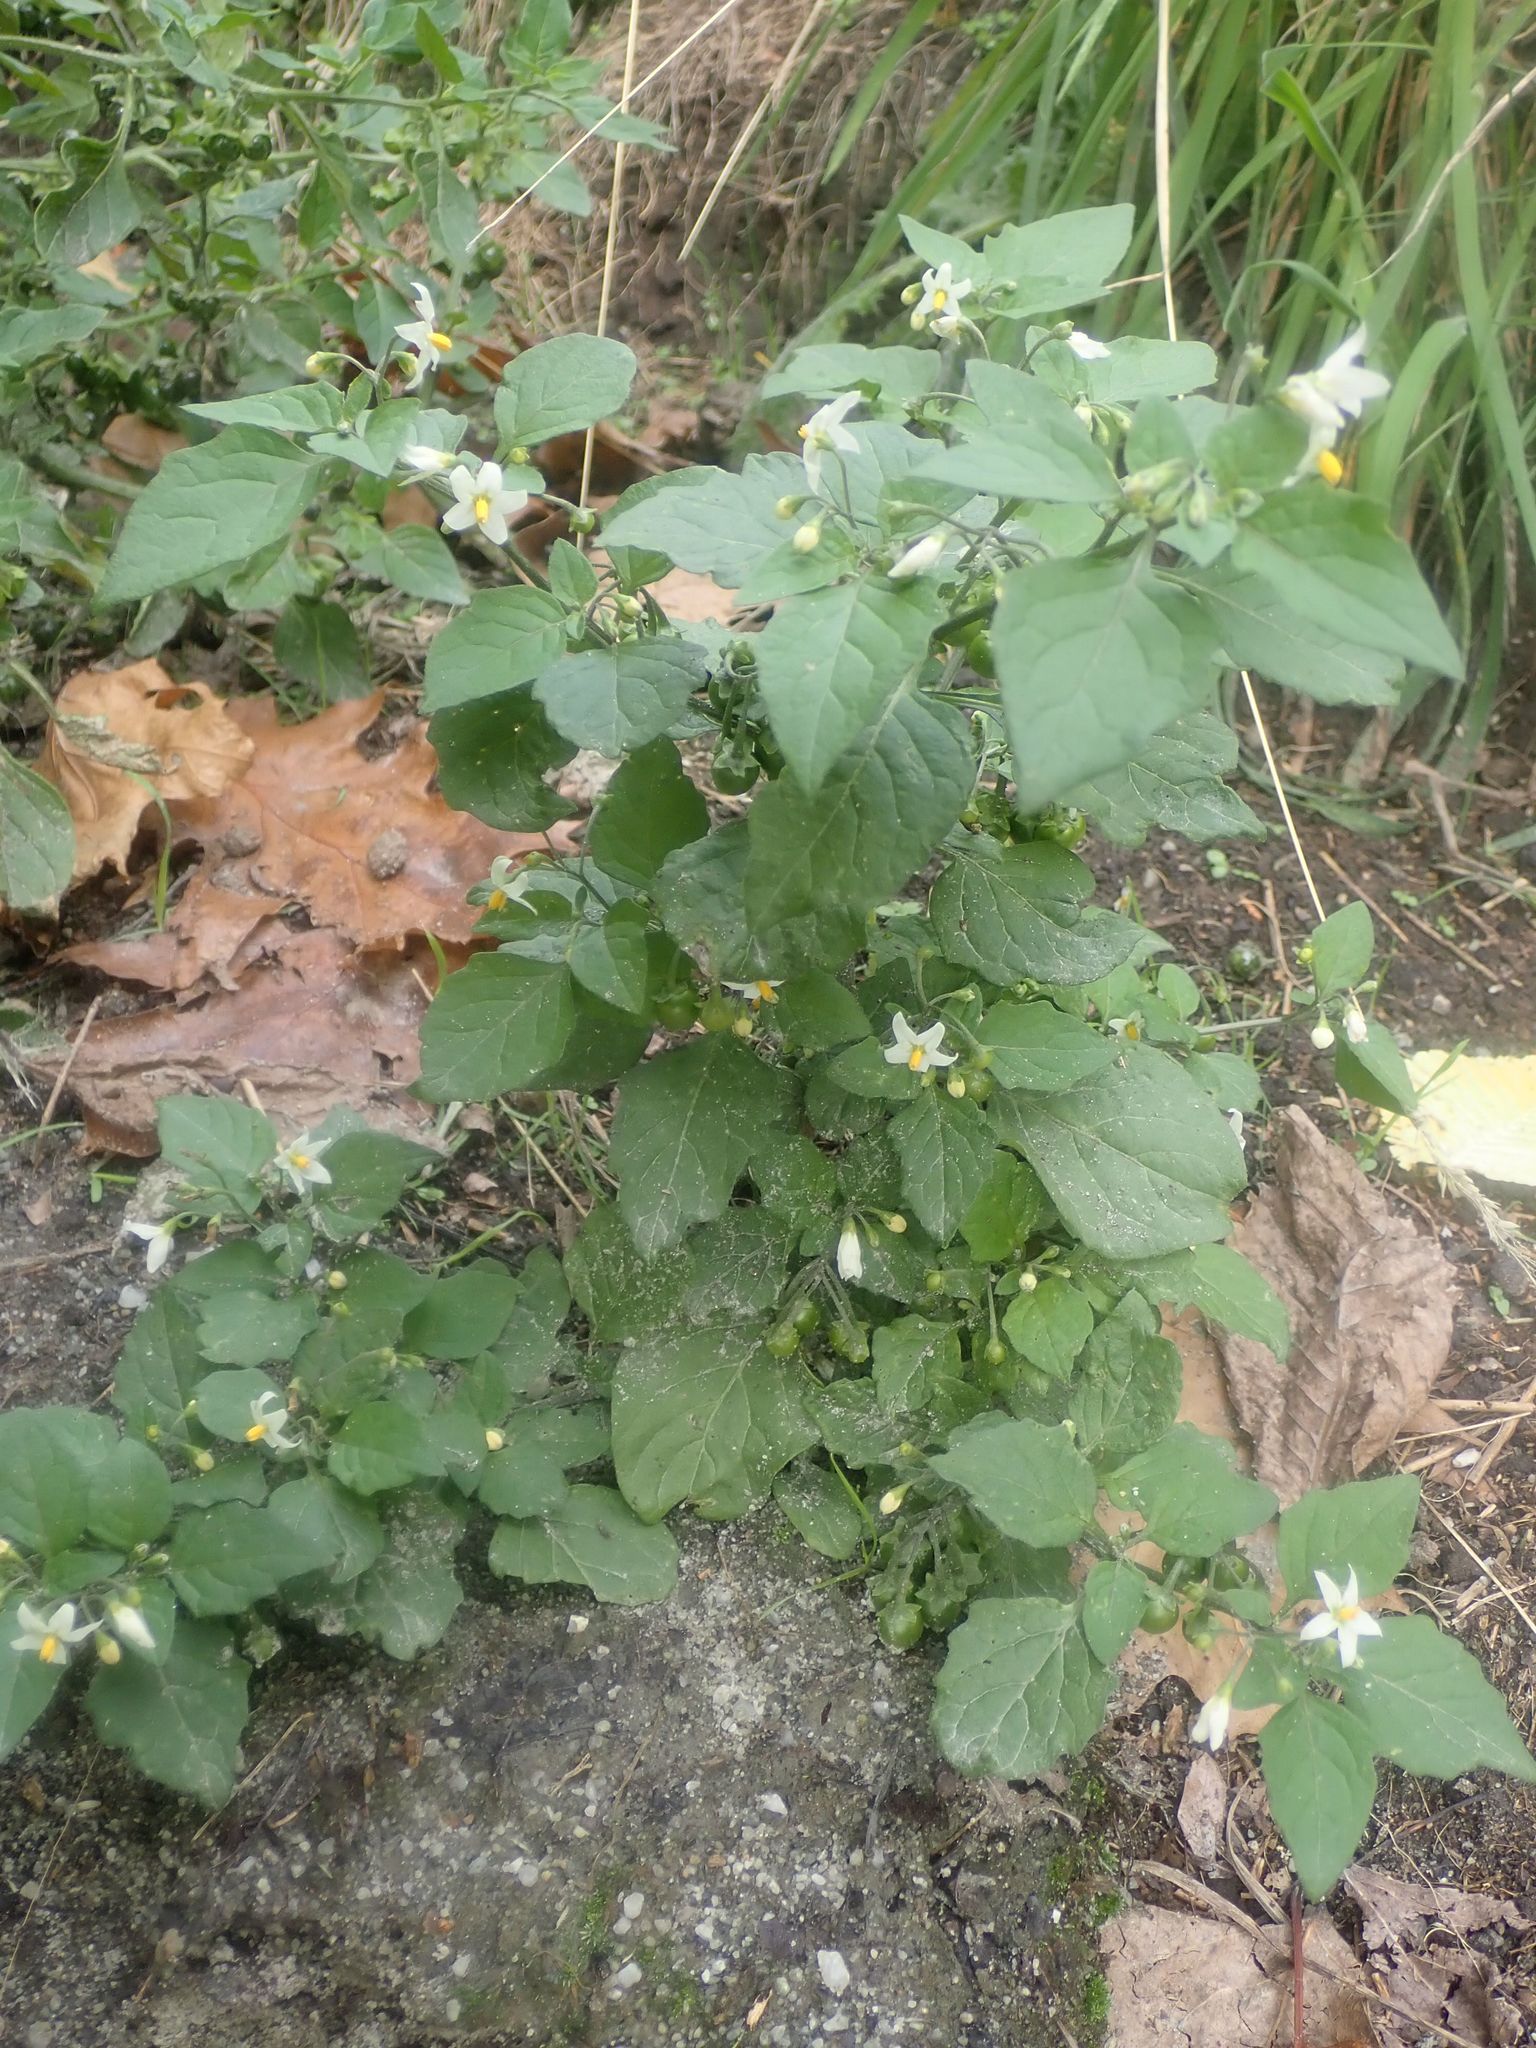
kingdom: Plantae
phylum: Tracheophyta
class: Magnoliopsida
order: Solanales
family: Solanaceae
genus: Solanum
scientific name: Solanum nigrum
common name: Black nightshade
